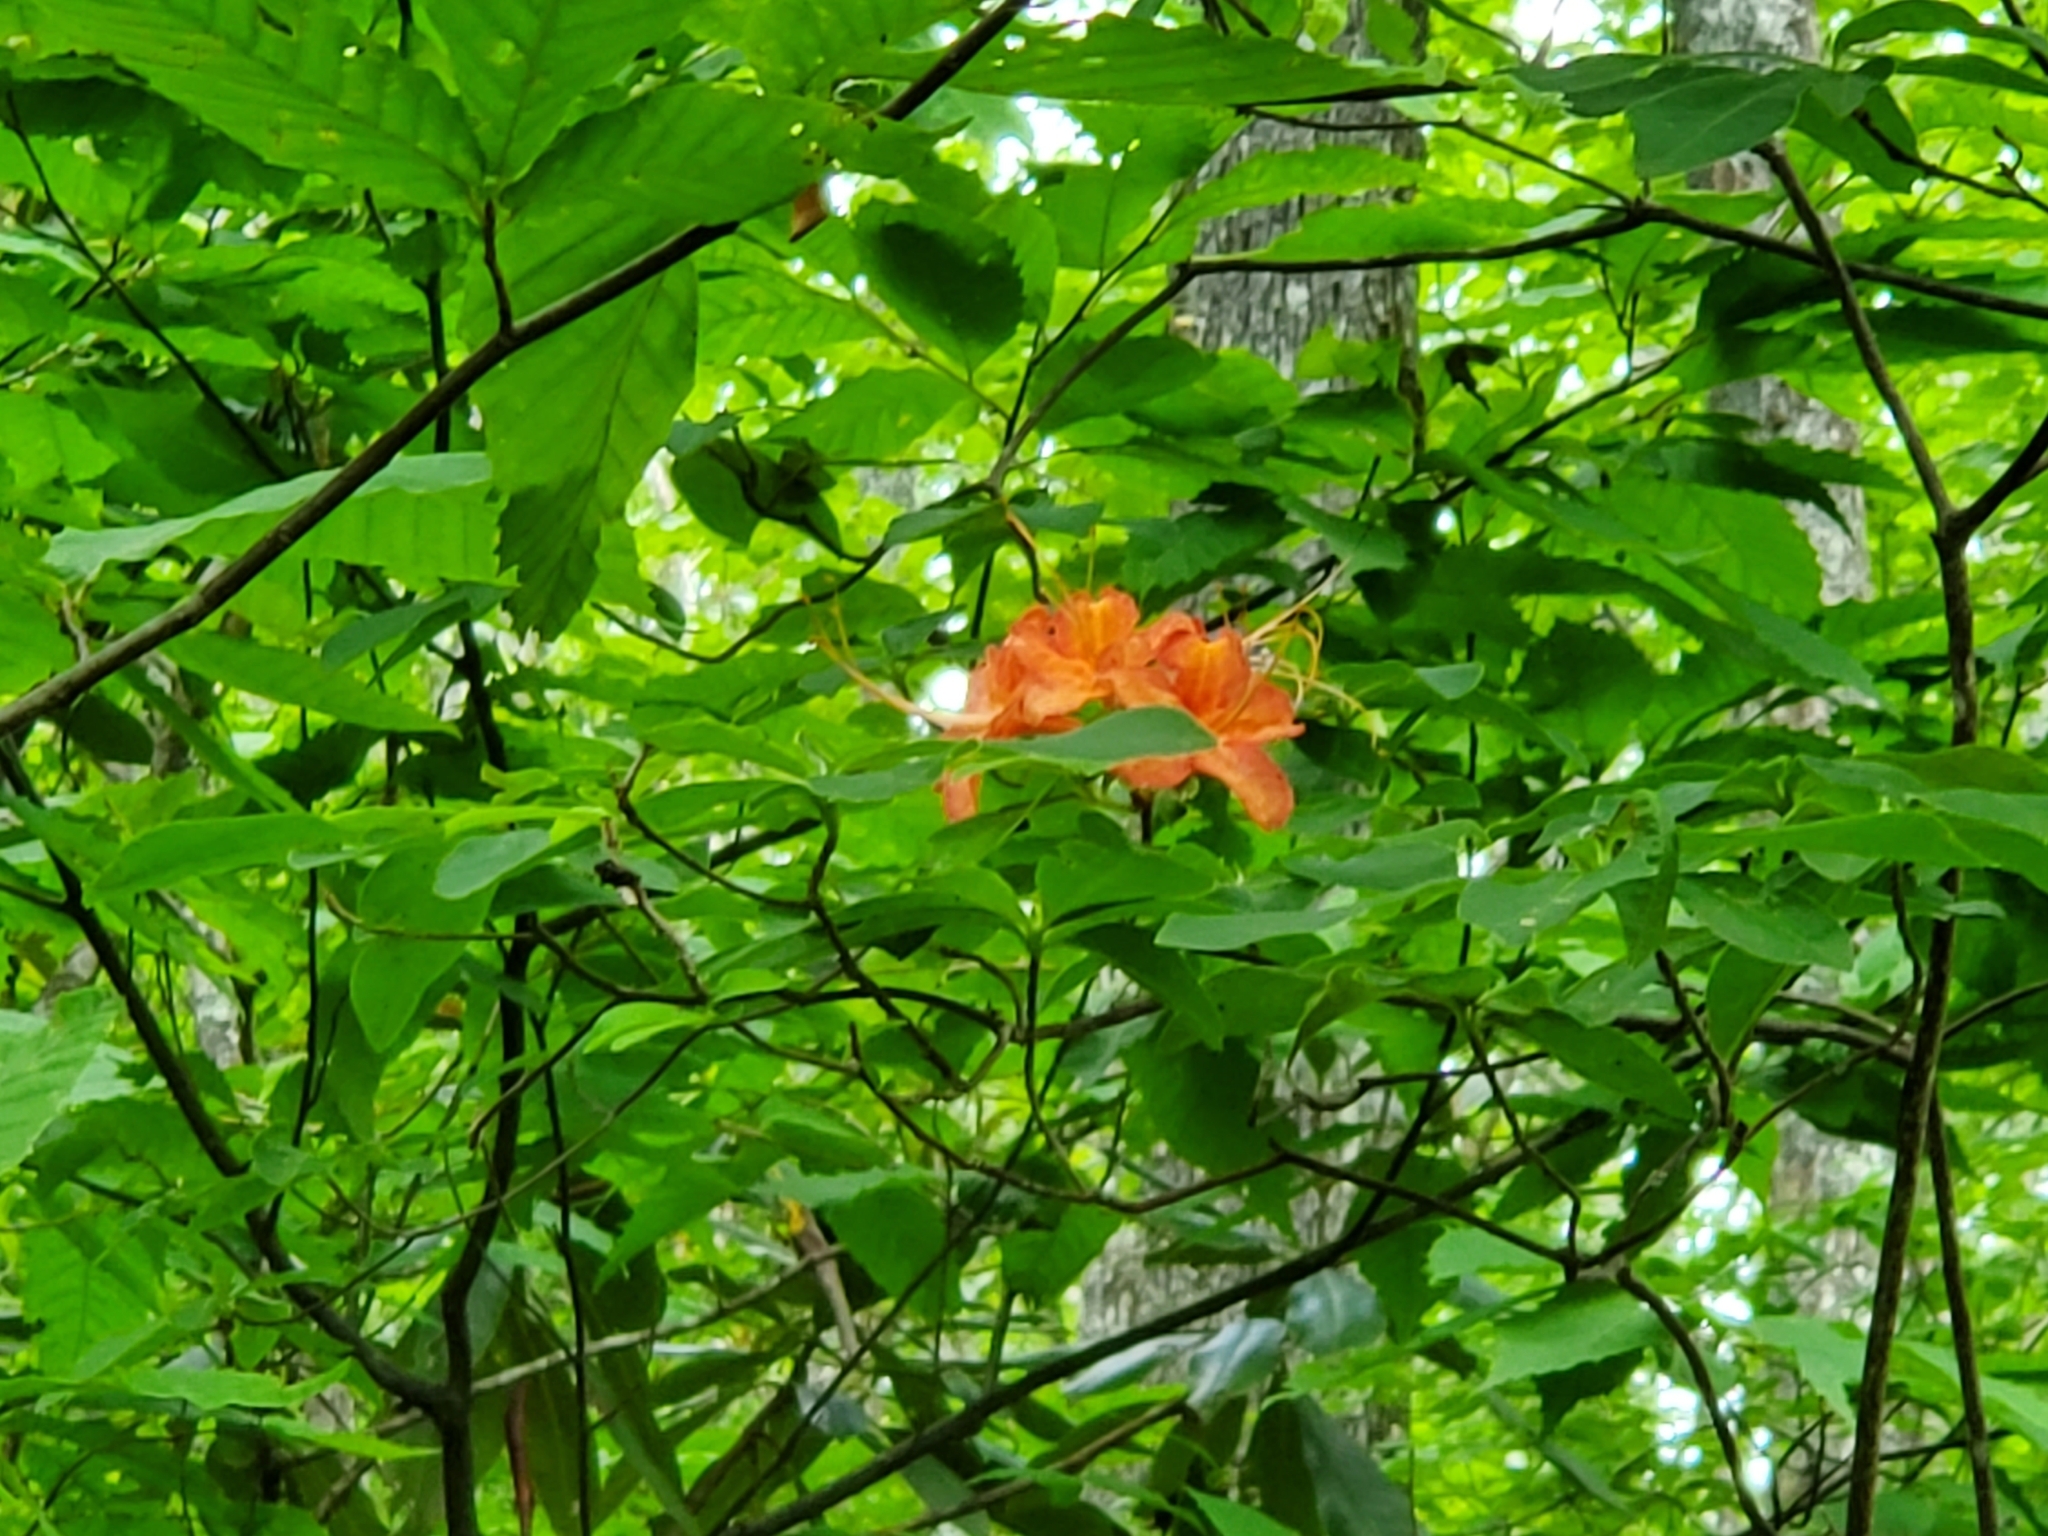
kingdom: Plantae
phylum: Tracheophyta
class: Magnoliopsida
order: Ericales
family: Ericaceae
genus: Rhododendron
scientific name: Rhododendron calendulaceum
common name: Flame azalea
